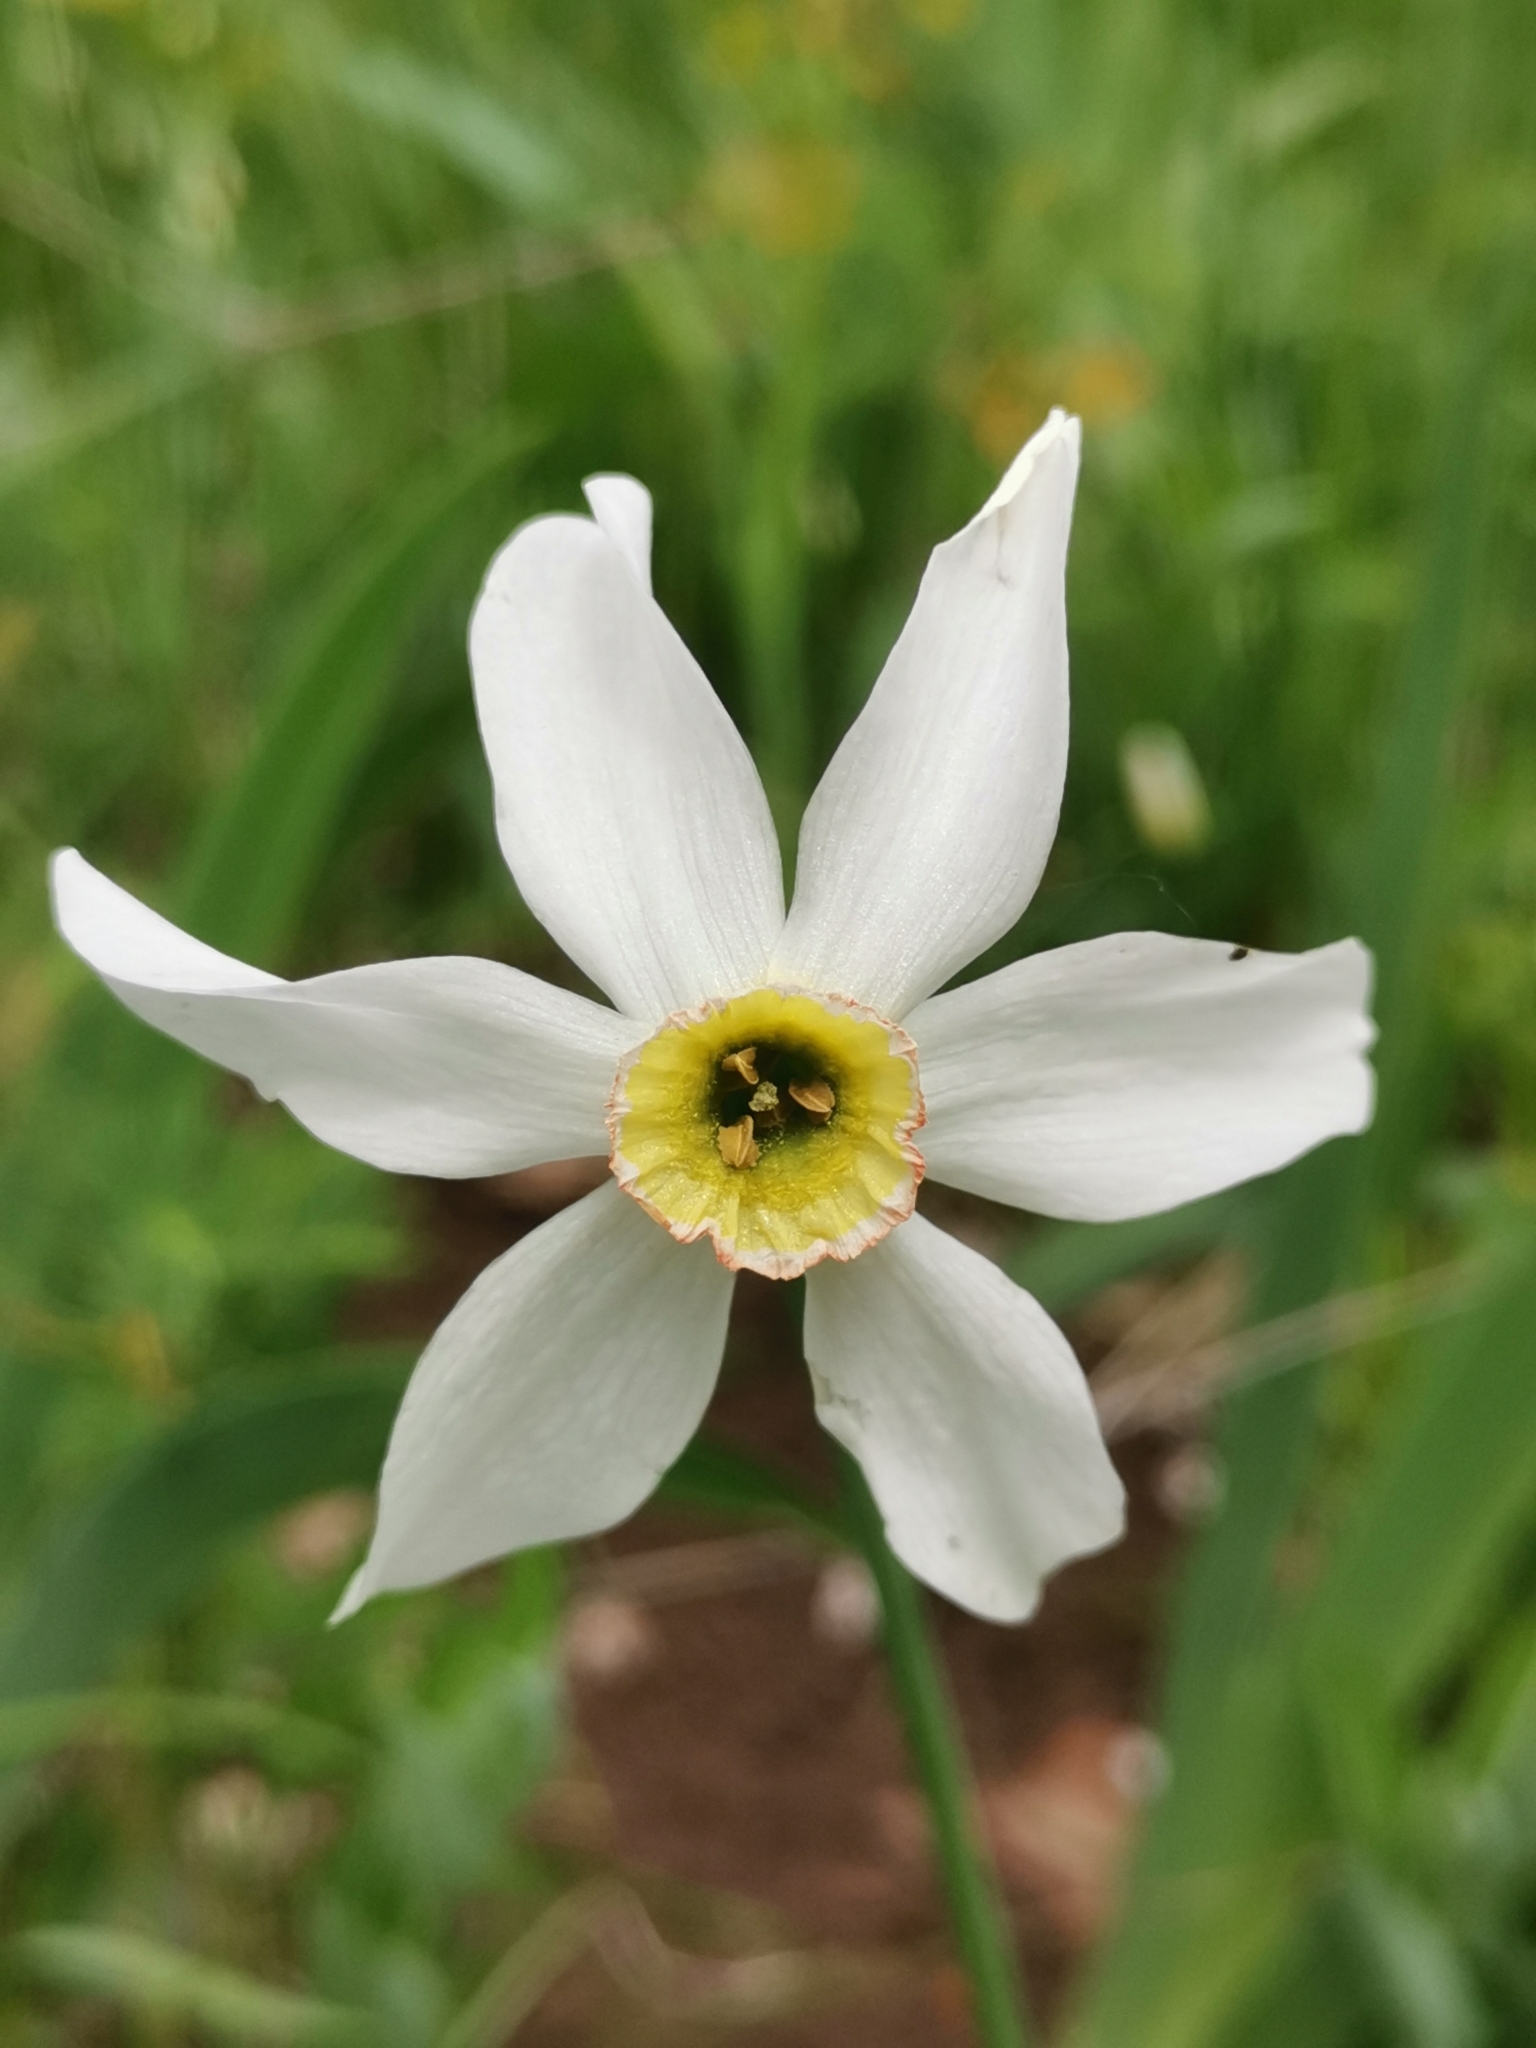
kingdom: Plantae
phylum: Tracheophyta
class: Liliopsida
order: Asparagales
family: Amaryllidaceae
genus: Narcissus
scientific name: Narcissus poeticus
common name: Pheasant's-eye daffodil
